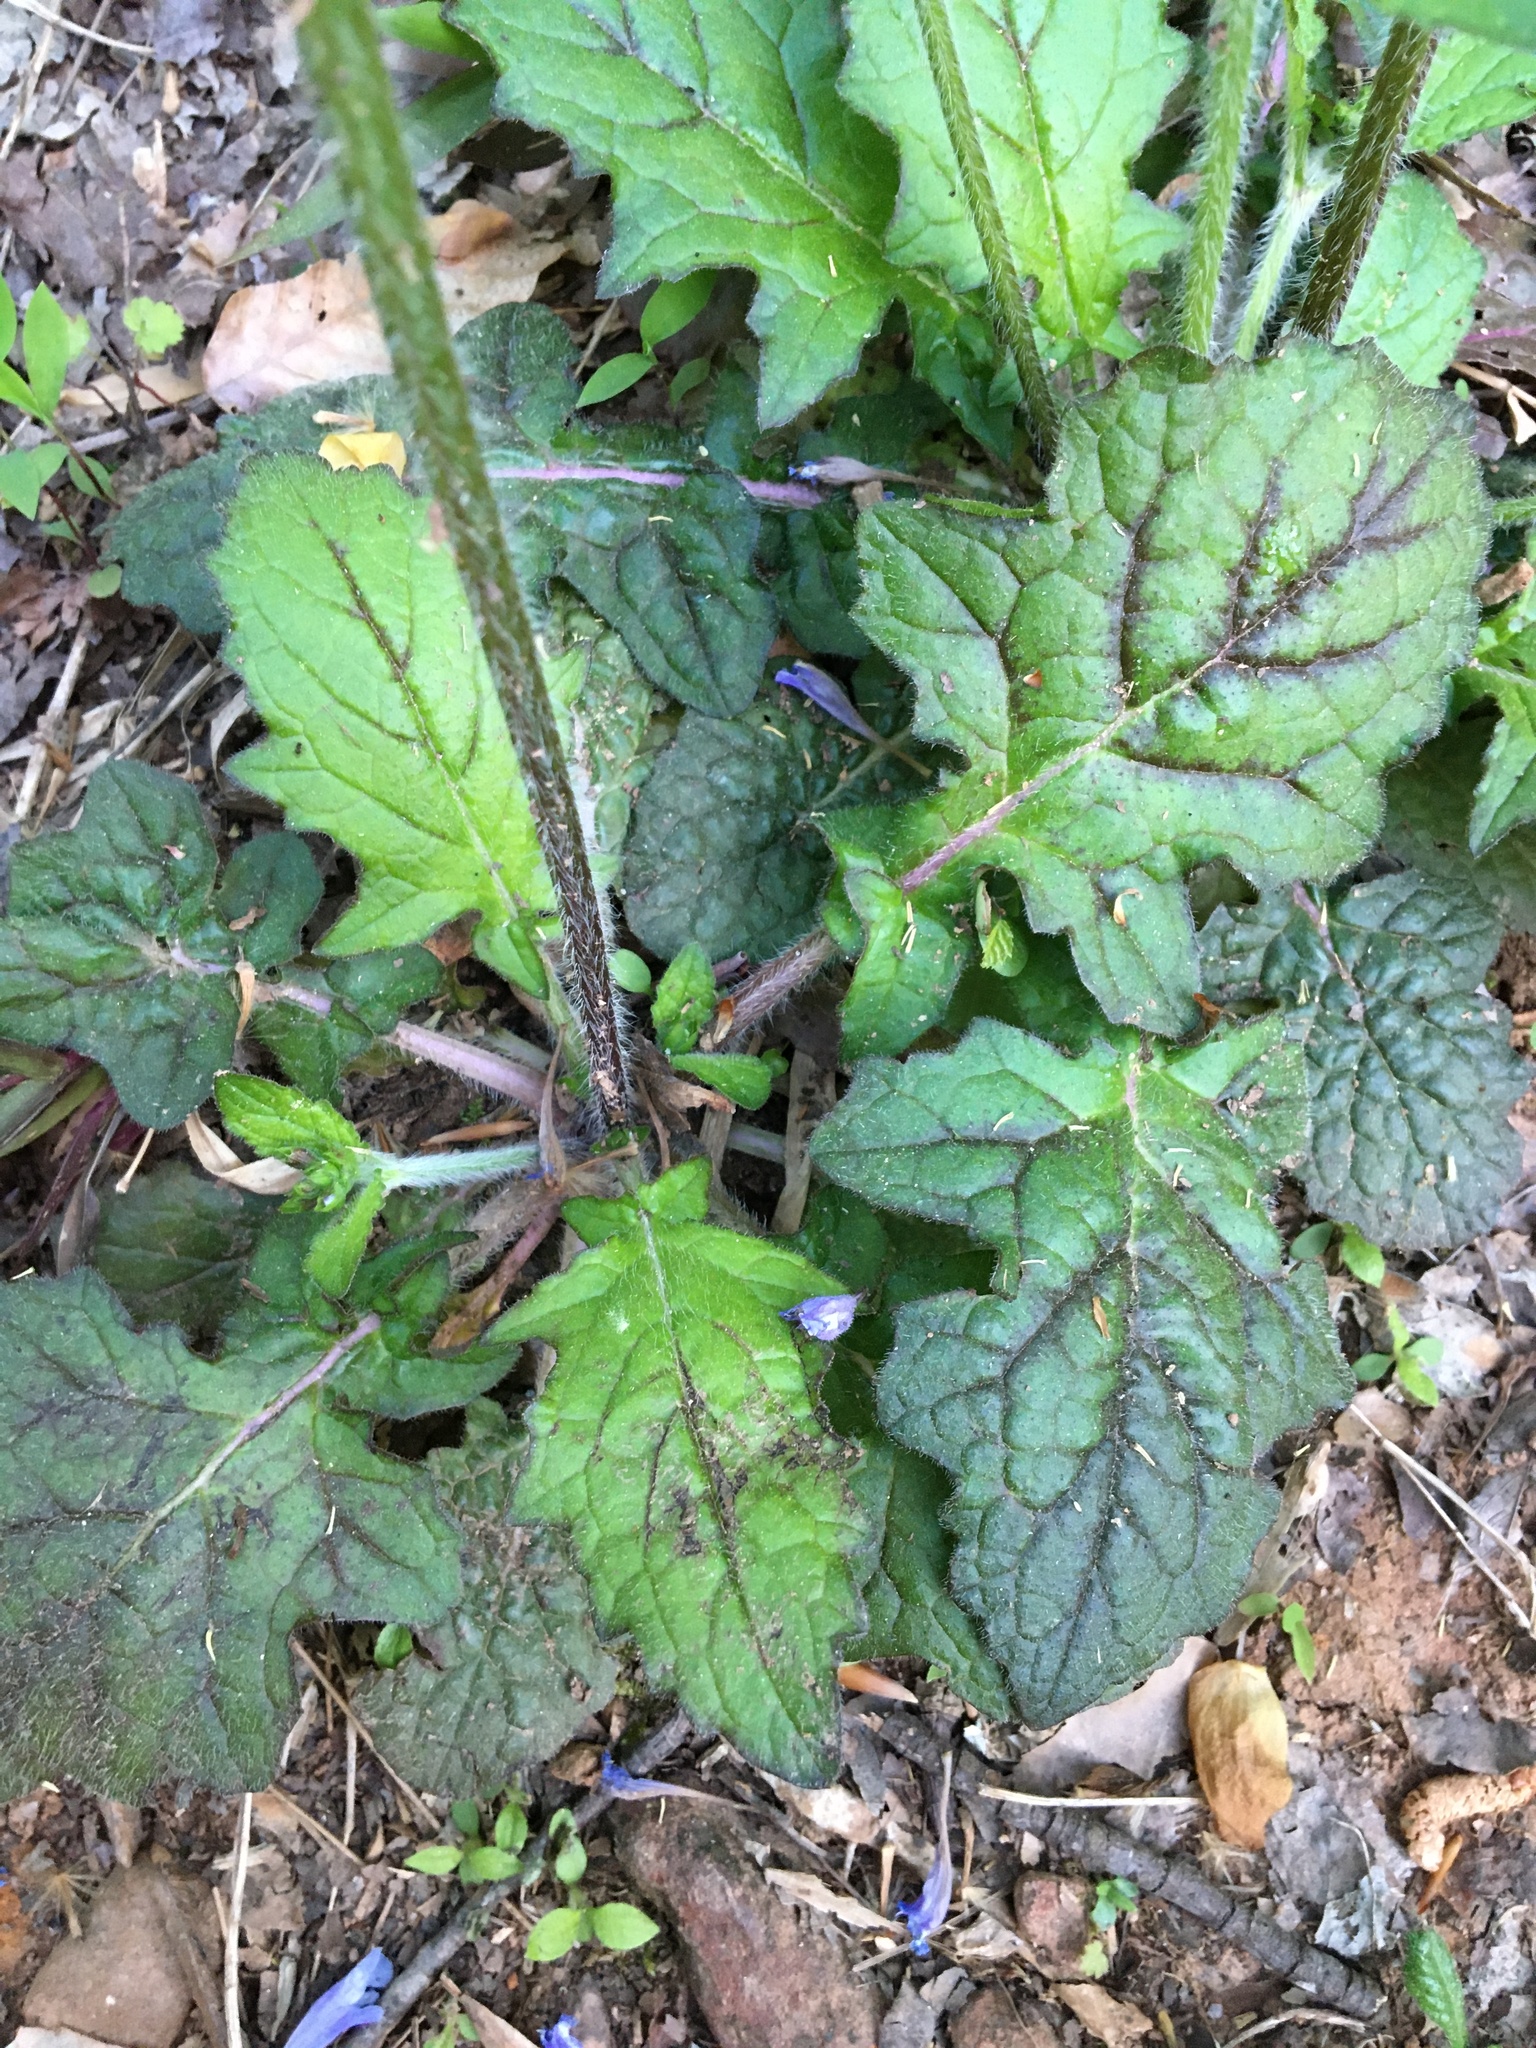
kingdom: Plantae
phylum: Tracheophyta
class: Magnoliopsida
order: Lamiales
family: Lamiaceae
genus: Salvia
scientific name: Salvia lyrata
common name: Cancerweed
